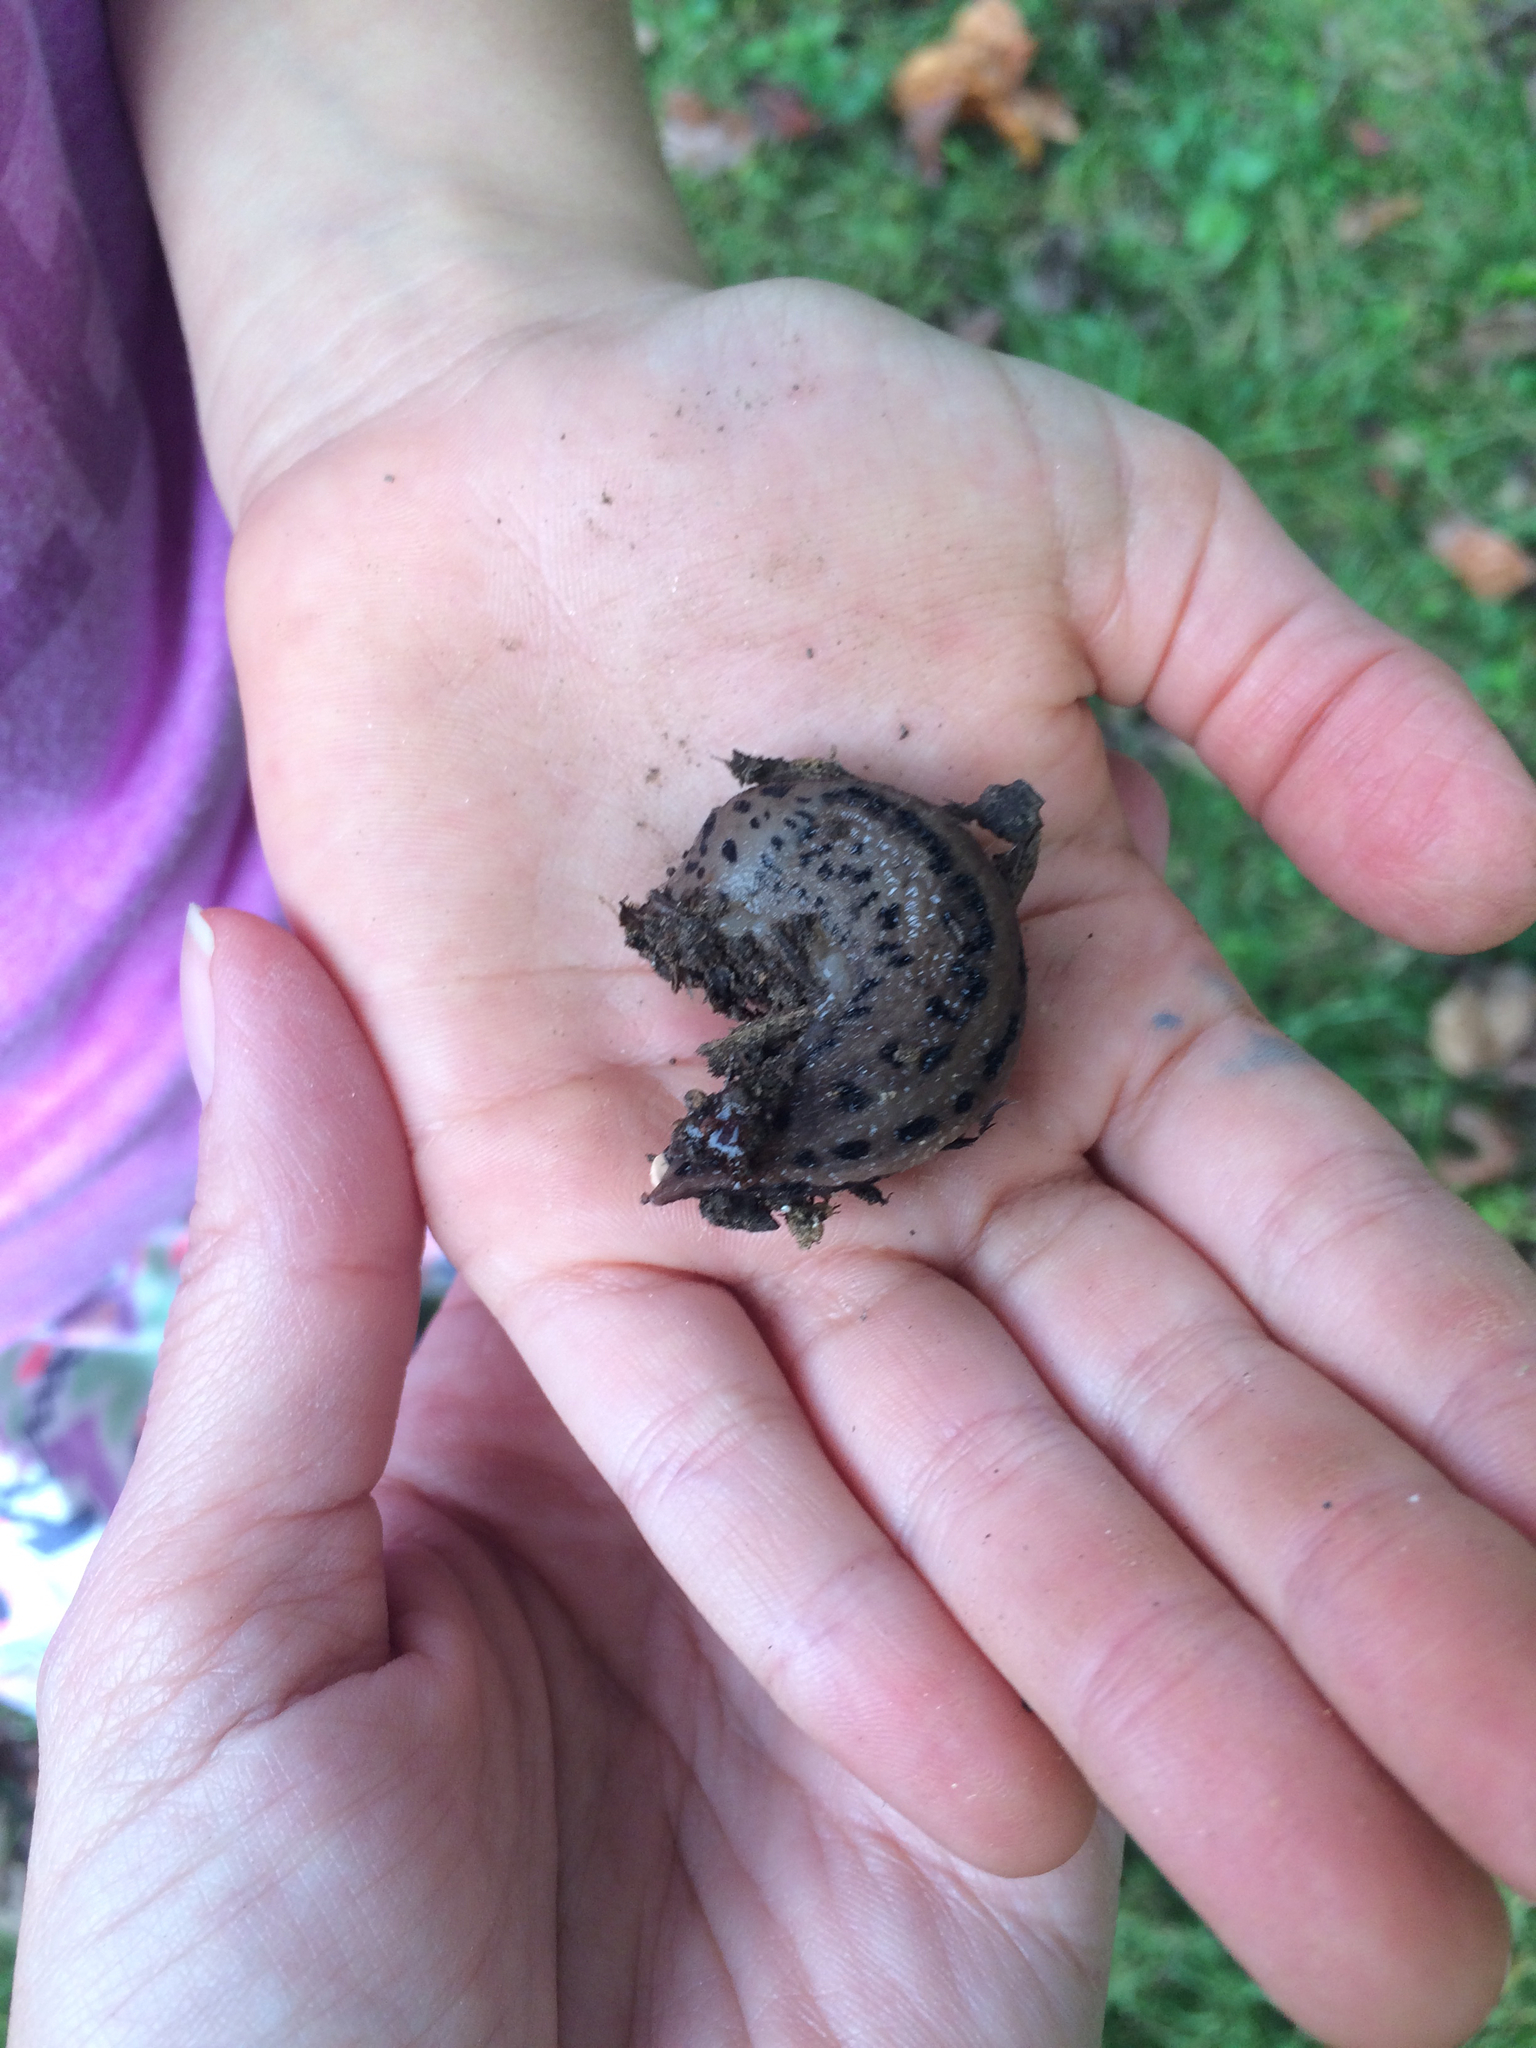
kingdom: Animalia
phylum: Mollusca
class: Gastropoda
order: Stylommatophora
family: Limacidae
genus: Limax
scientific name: Limax maximus
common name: Great grey slug
